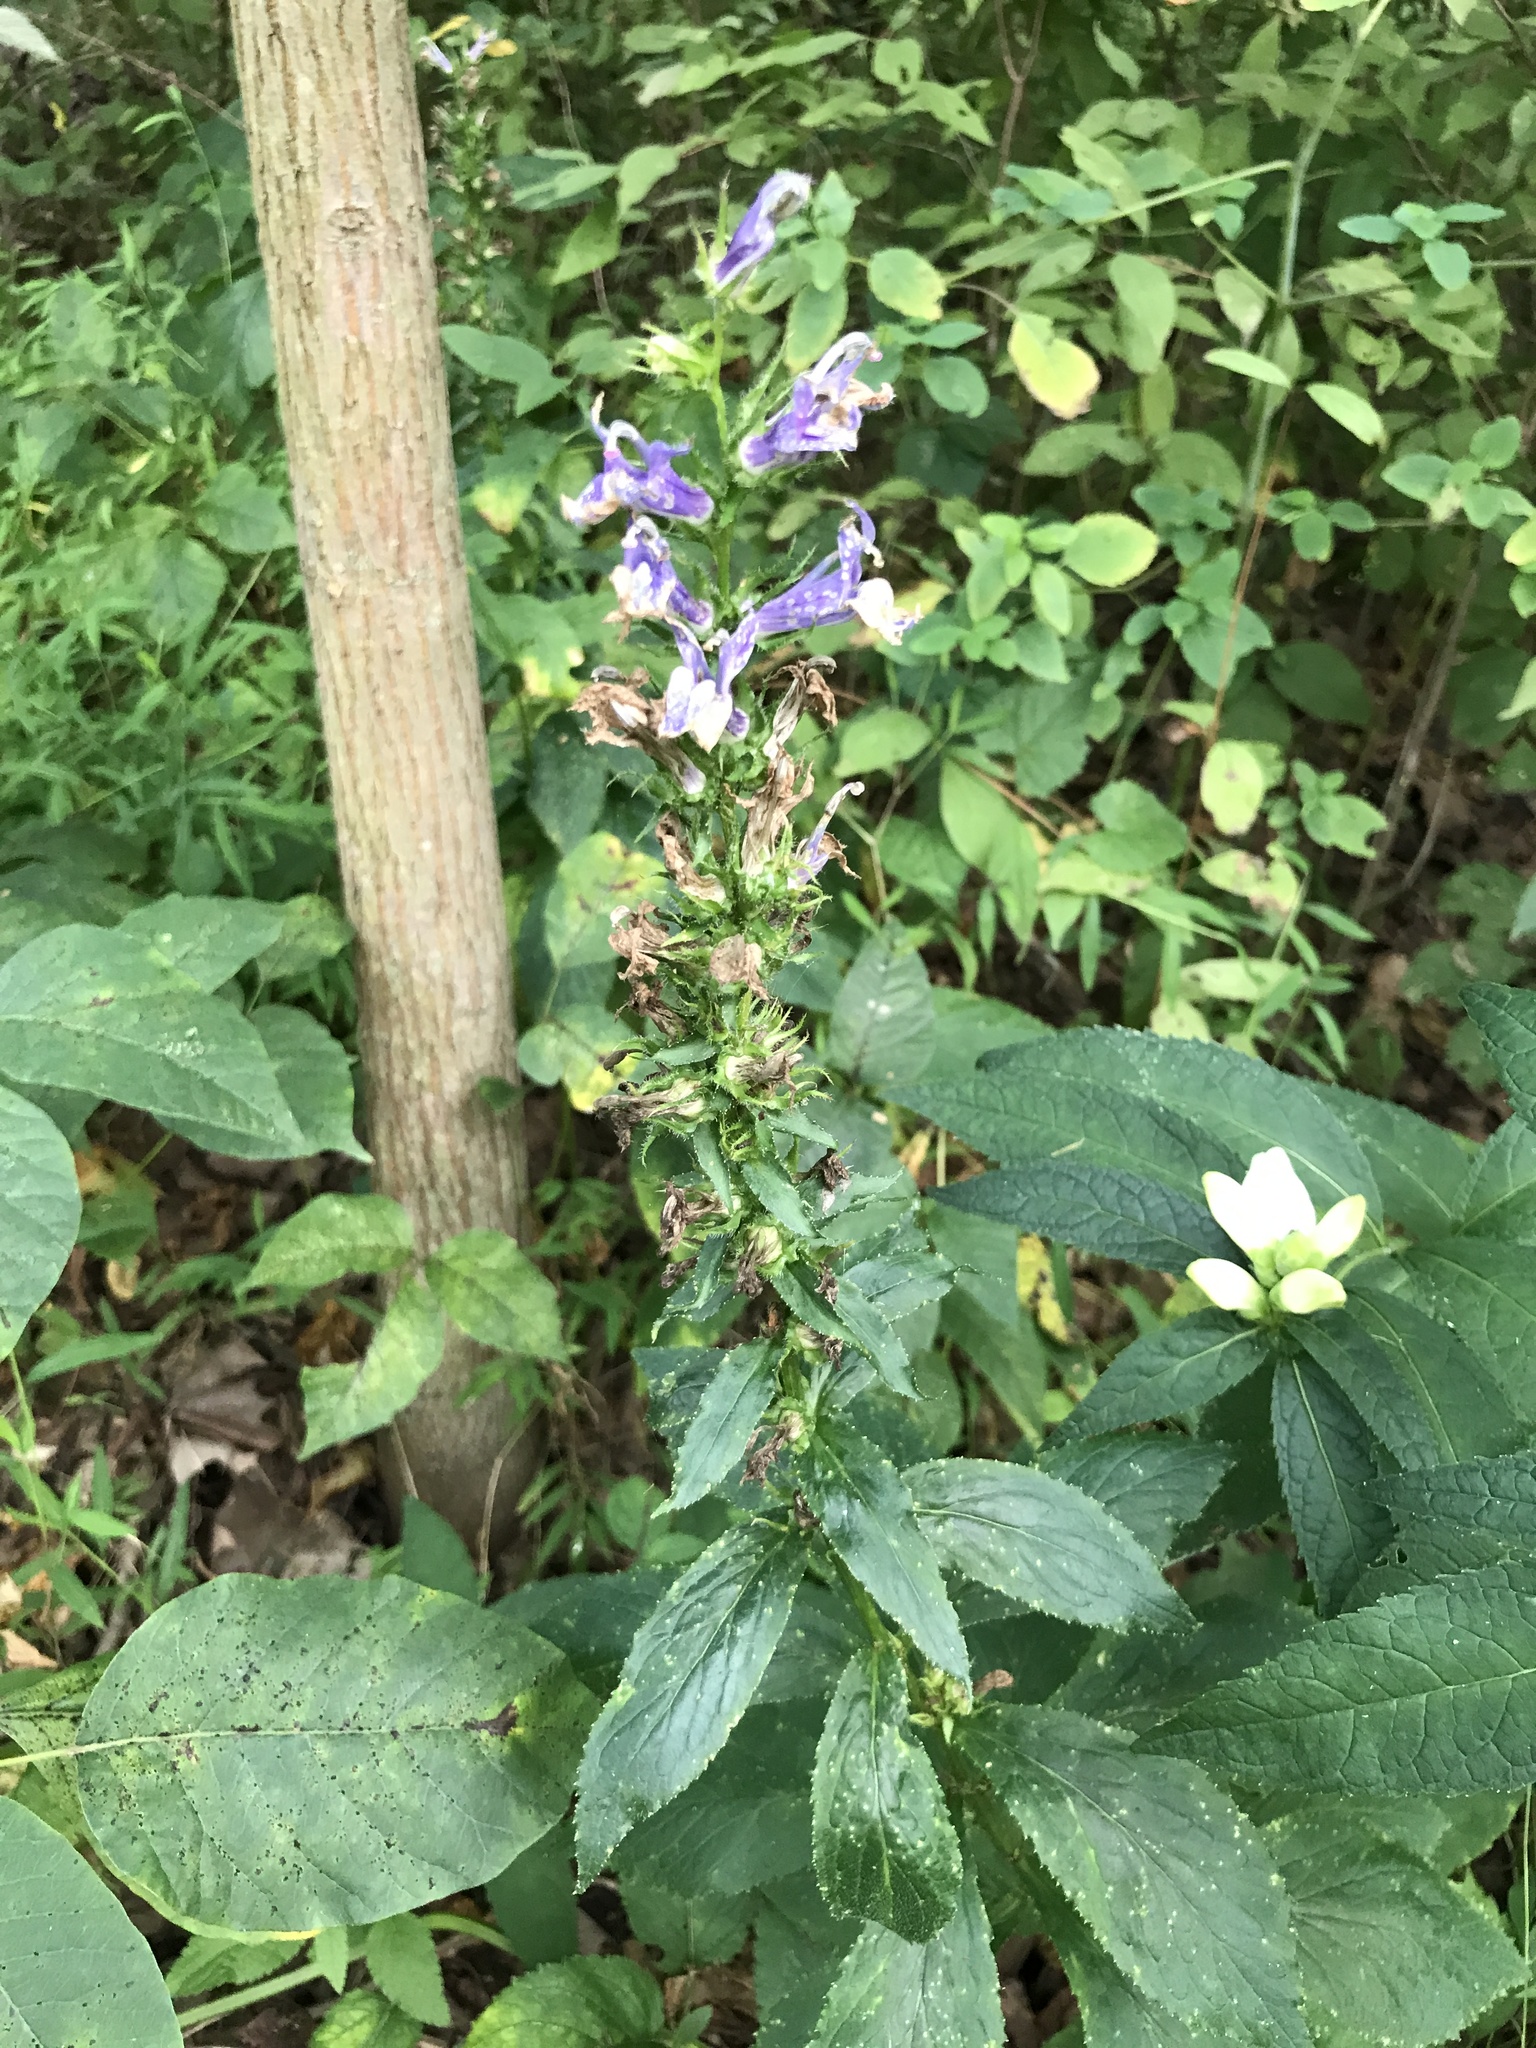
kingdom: Plantae
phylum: Tracheophyta
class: Magnoliopsida
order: Asterales
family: Campanulaceae
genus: Lobelia
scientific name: Lobelia siphilitica
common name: Great lobelia
